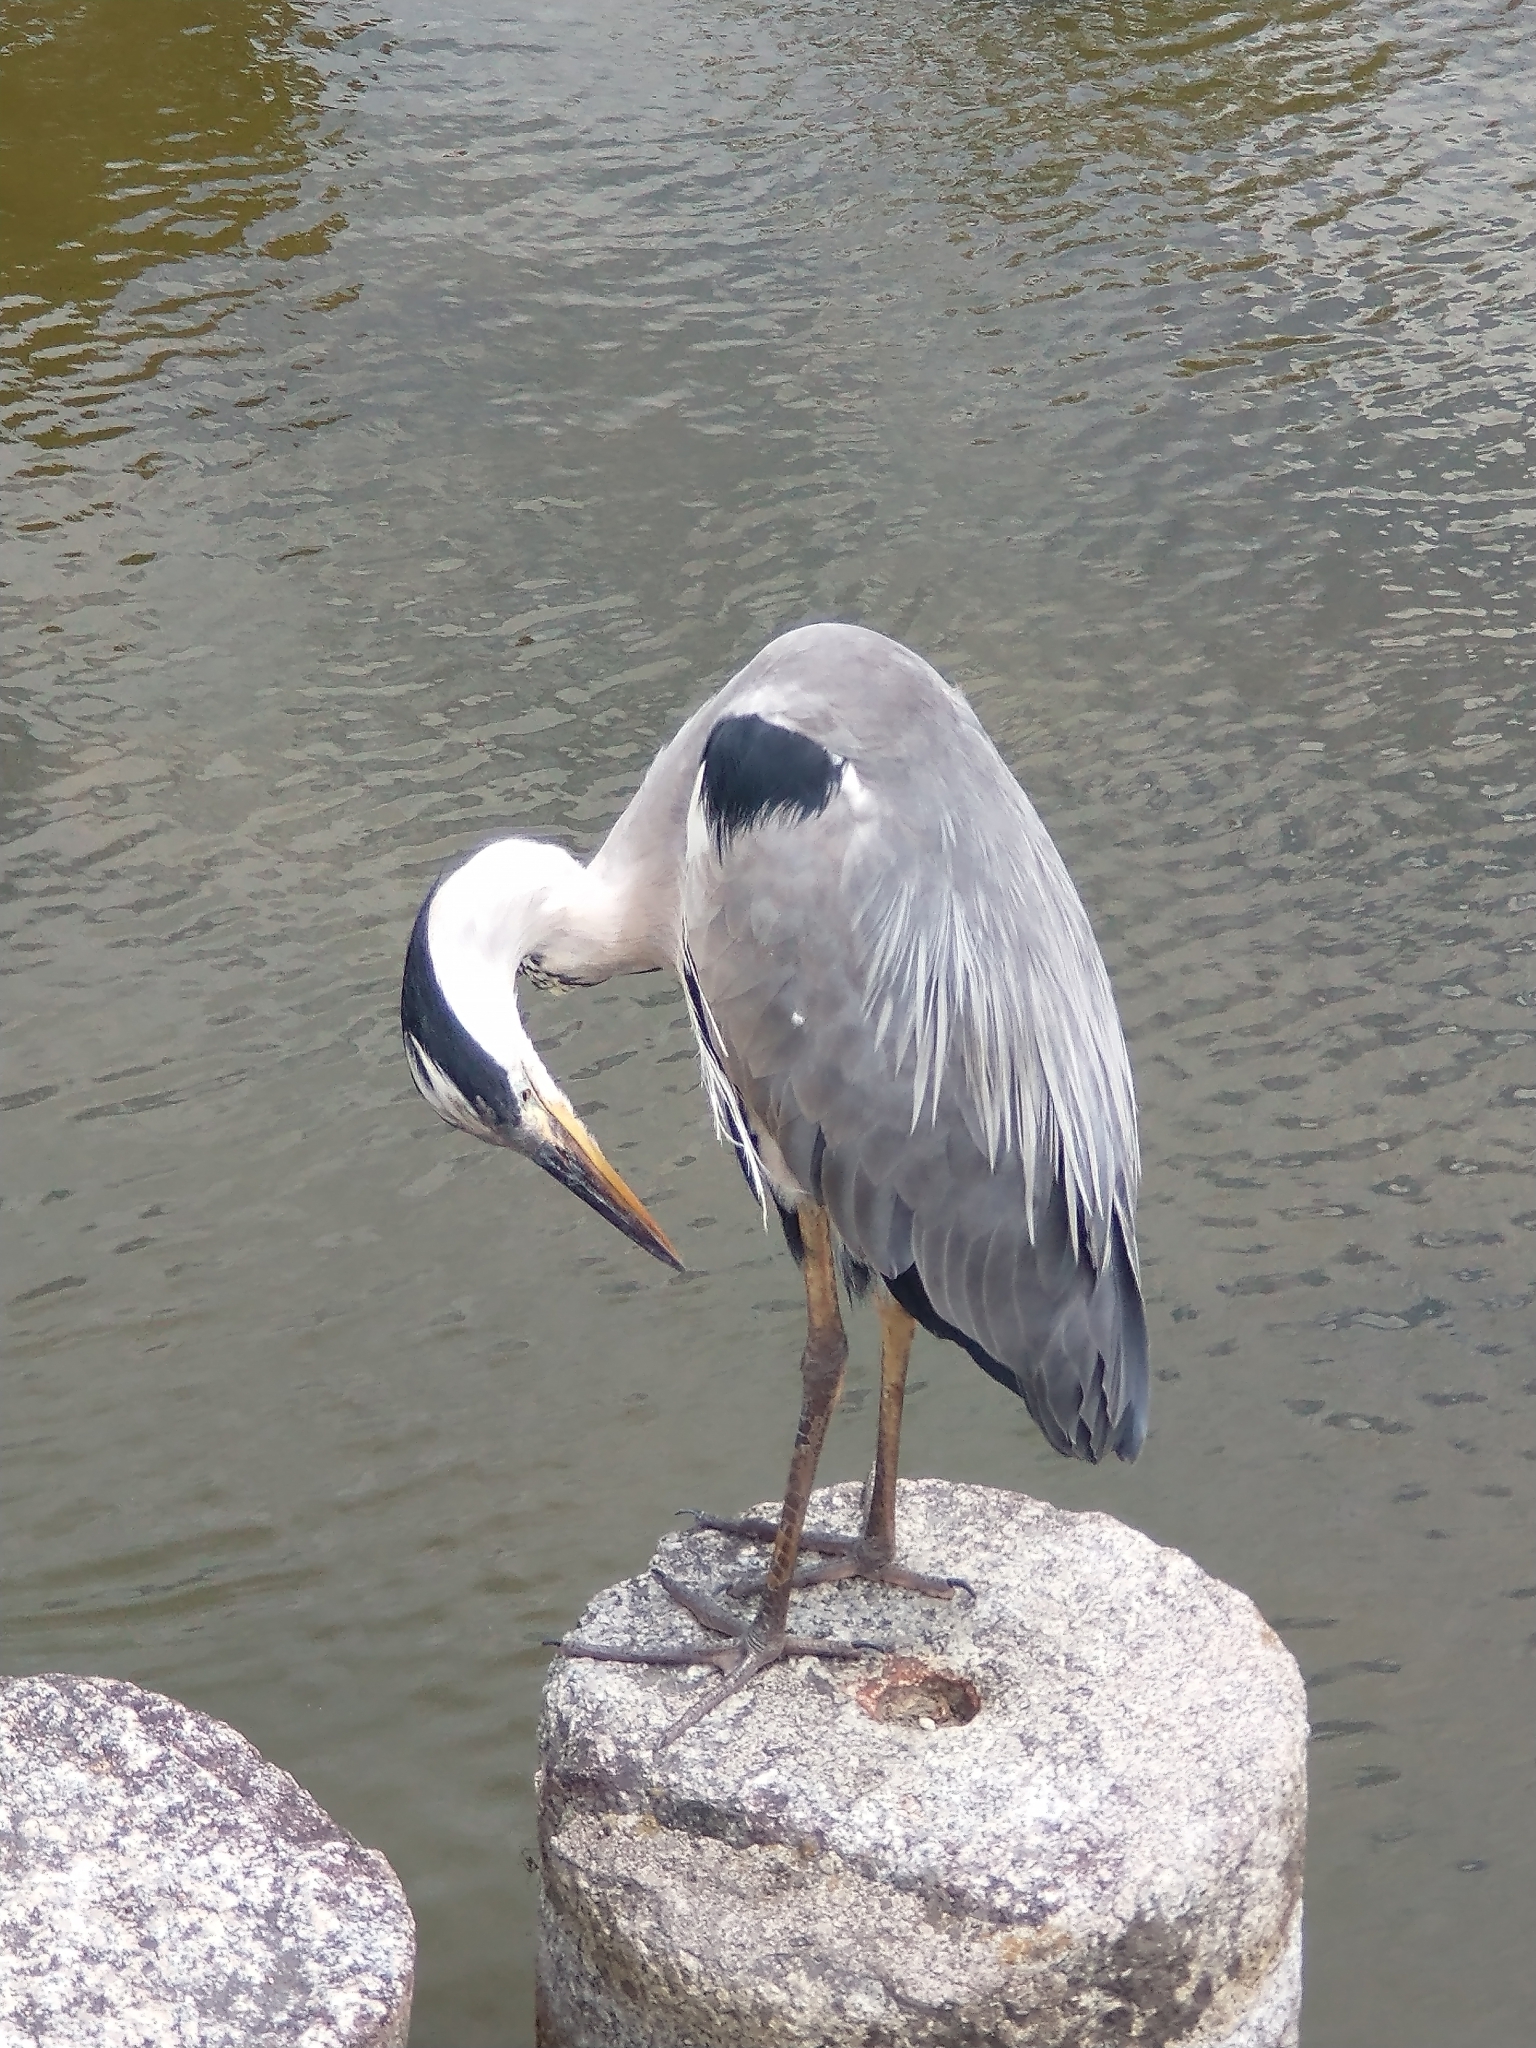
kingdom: Animalia
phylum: Chordata
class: Aves
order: Pelecaniformes
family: Ardeidae
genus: Ardea
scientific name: Ardea cinerea
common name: Grey heron
